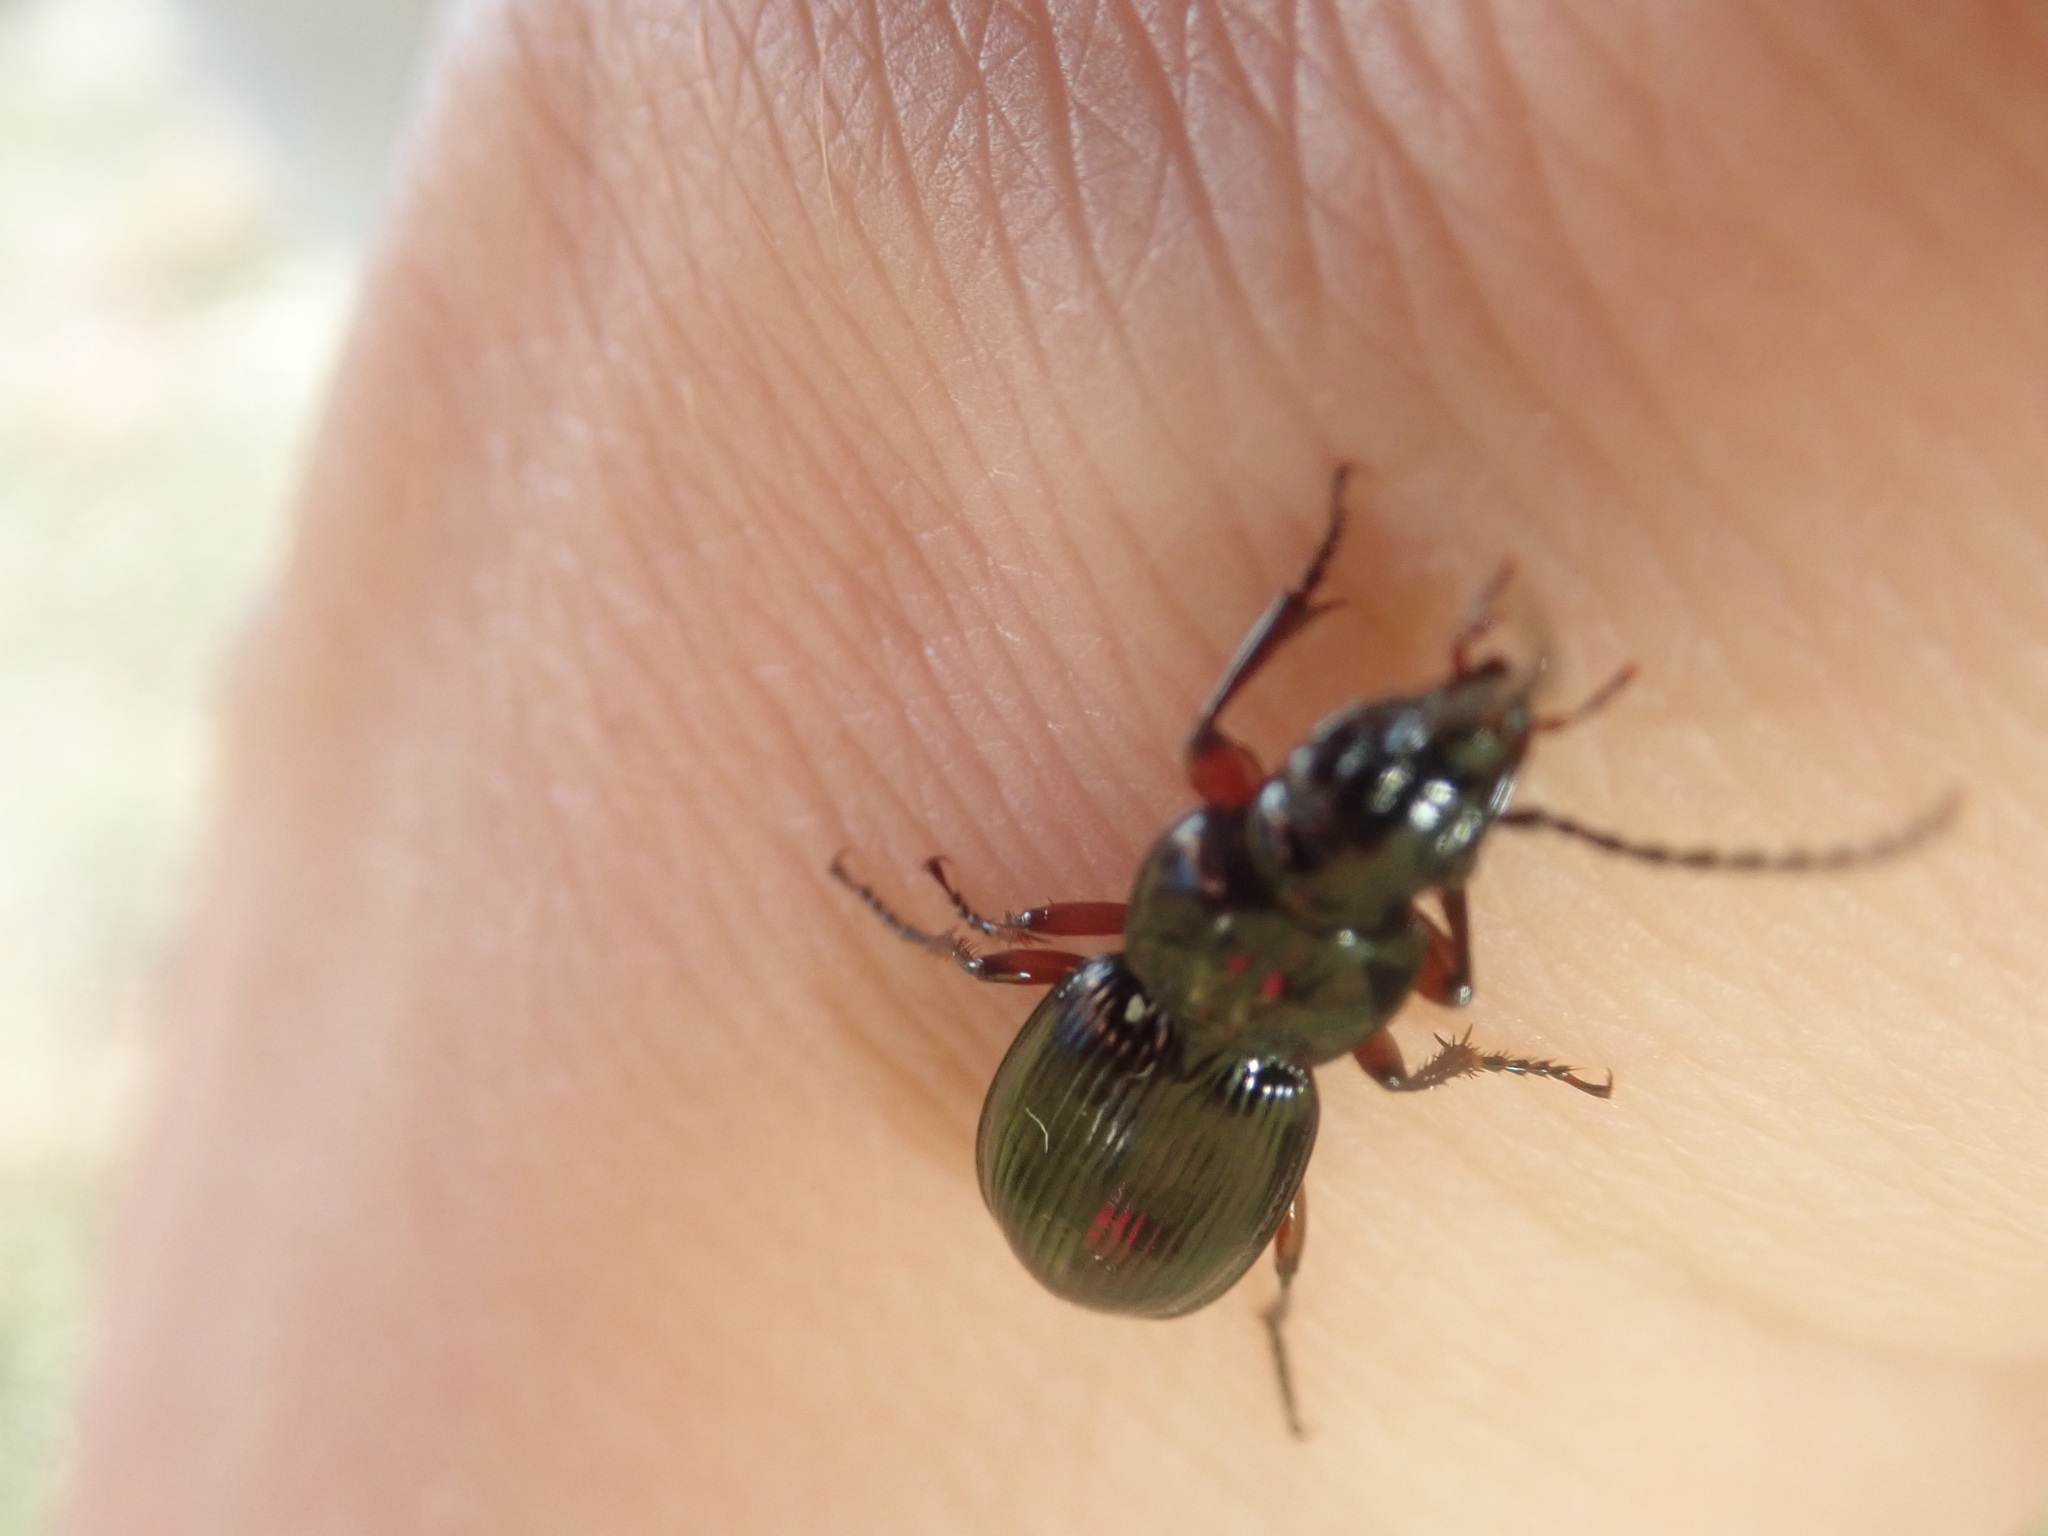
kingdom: Animalia
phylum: Arthropoda
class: Insecta
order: Coleoptera
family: Carabidae
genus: Pterostichus
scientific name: Pterostichus madidus
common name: Black clock
